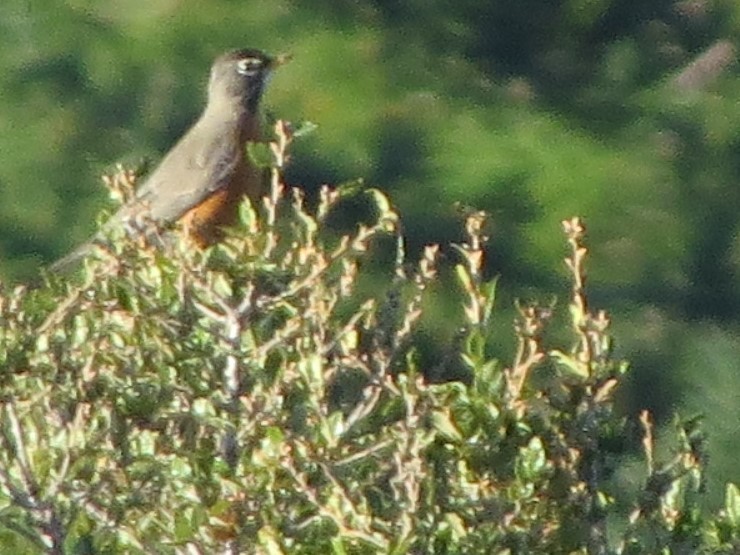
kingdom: Animalia
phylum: Chordata
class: Aves
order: Passeriformes
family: Turdidae
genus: Turdus
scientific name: Turdus migratorius
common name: American robin
